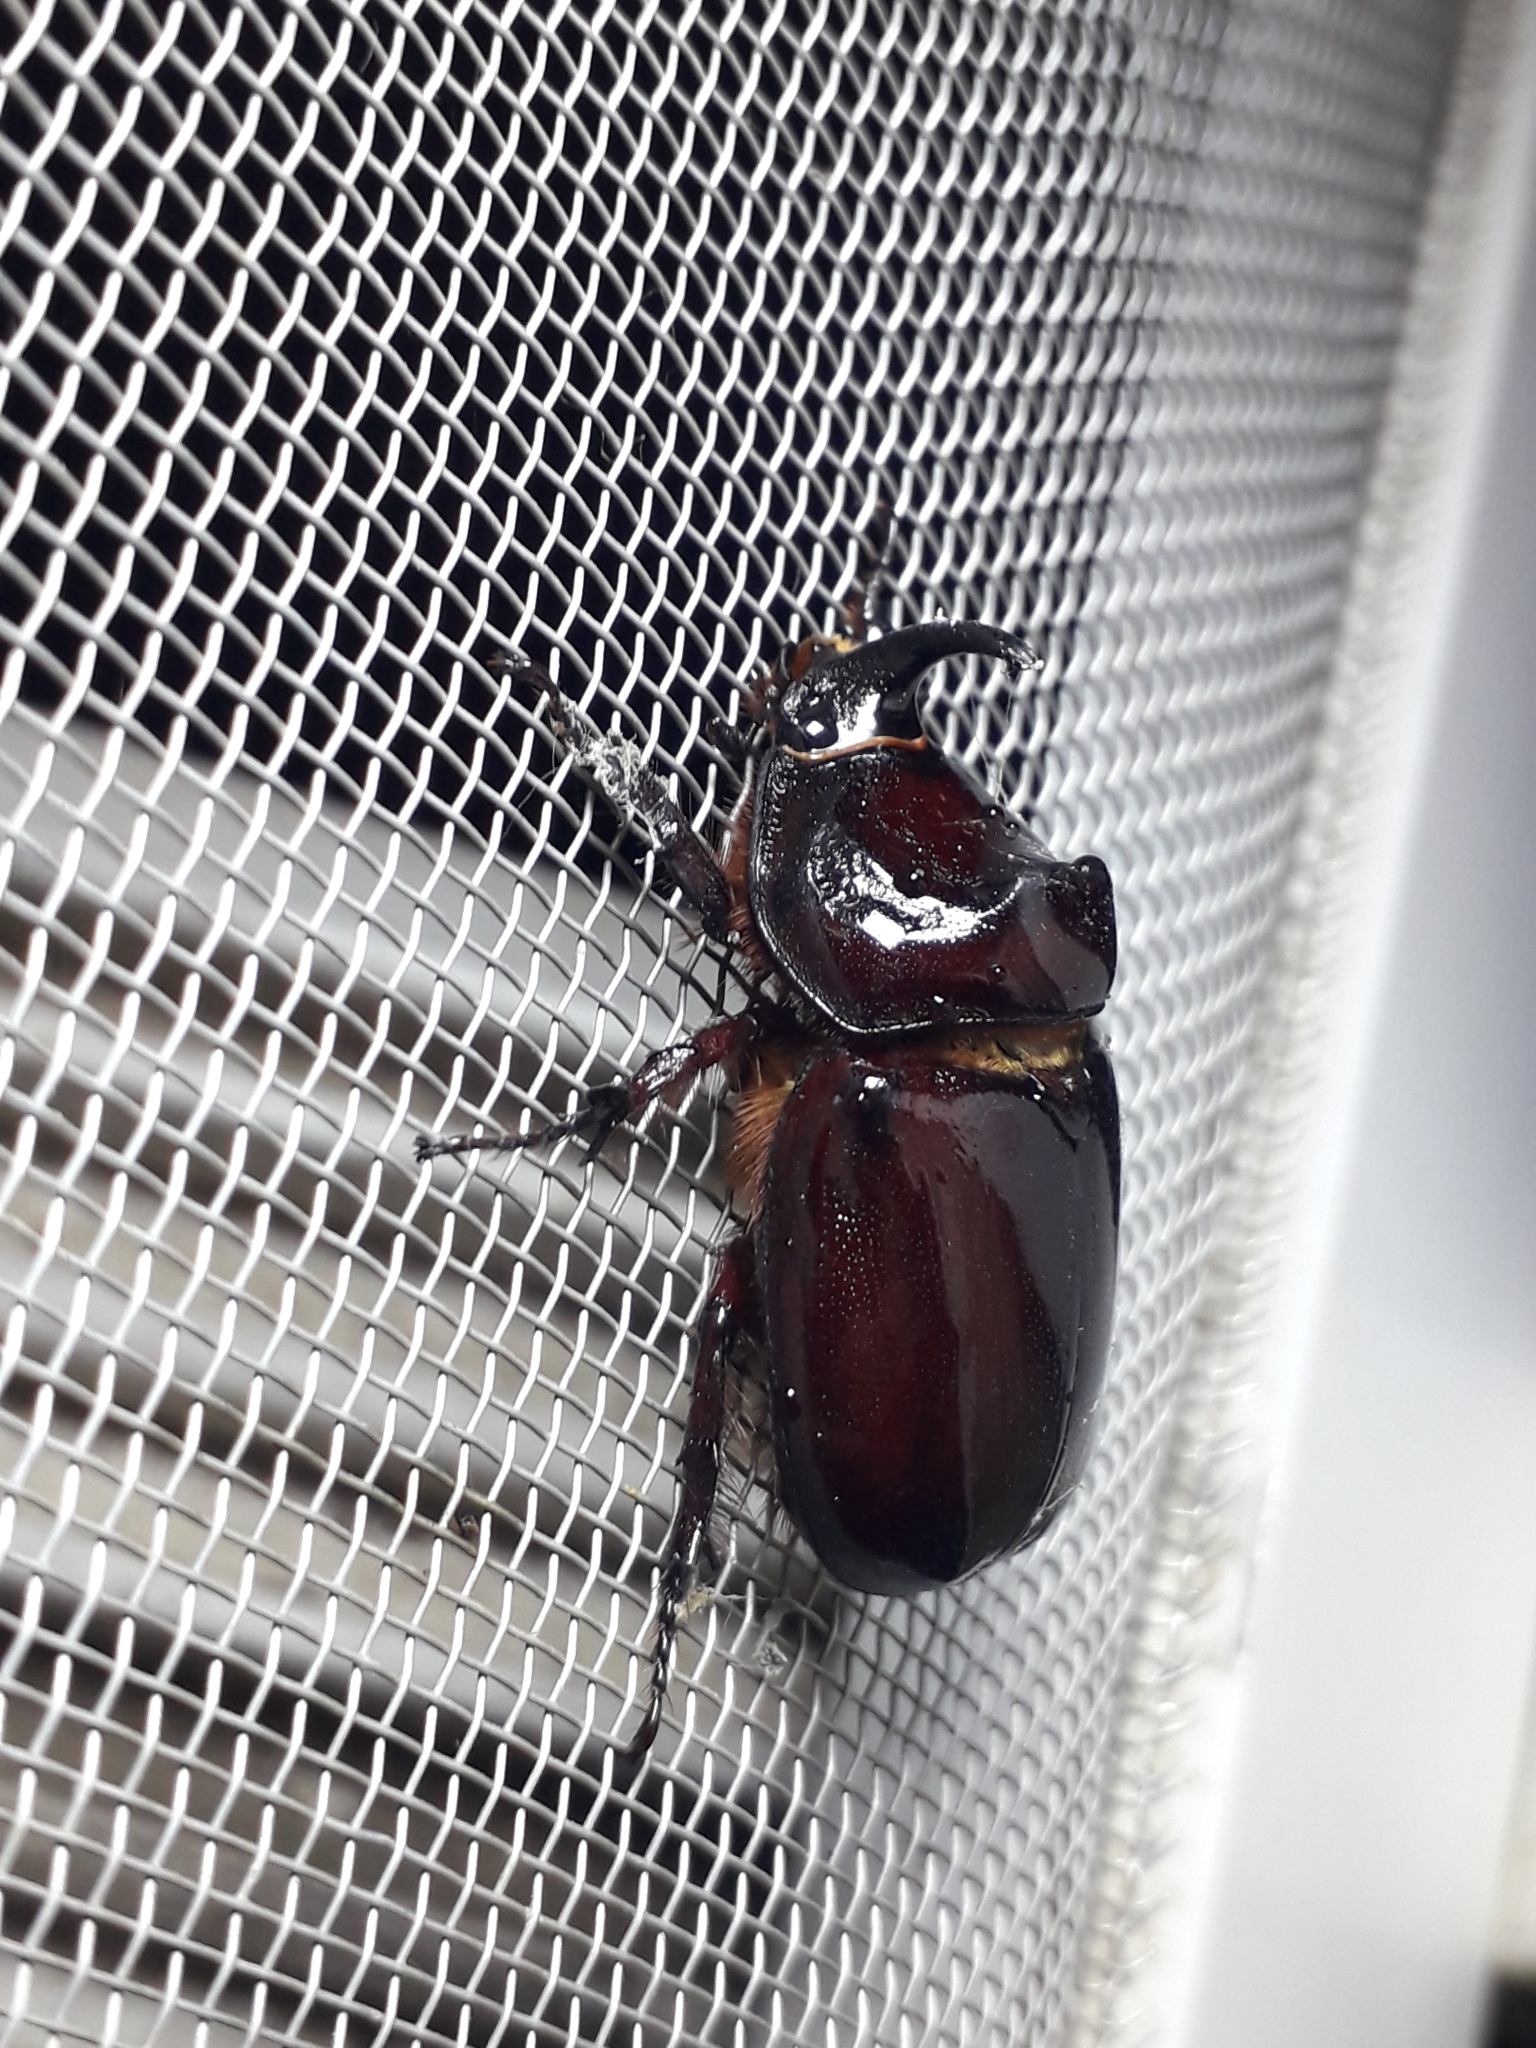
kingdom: Animalia
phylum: Arthropoda
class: Insecta
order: Coleoptera
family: Scarabaeidae
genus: Oryctes
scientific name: Oryctes nasicornis
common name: European rhinoceros beetle
